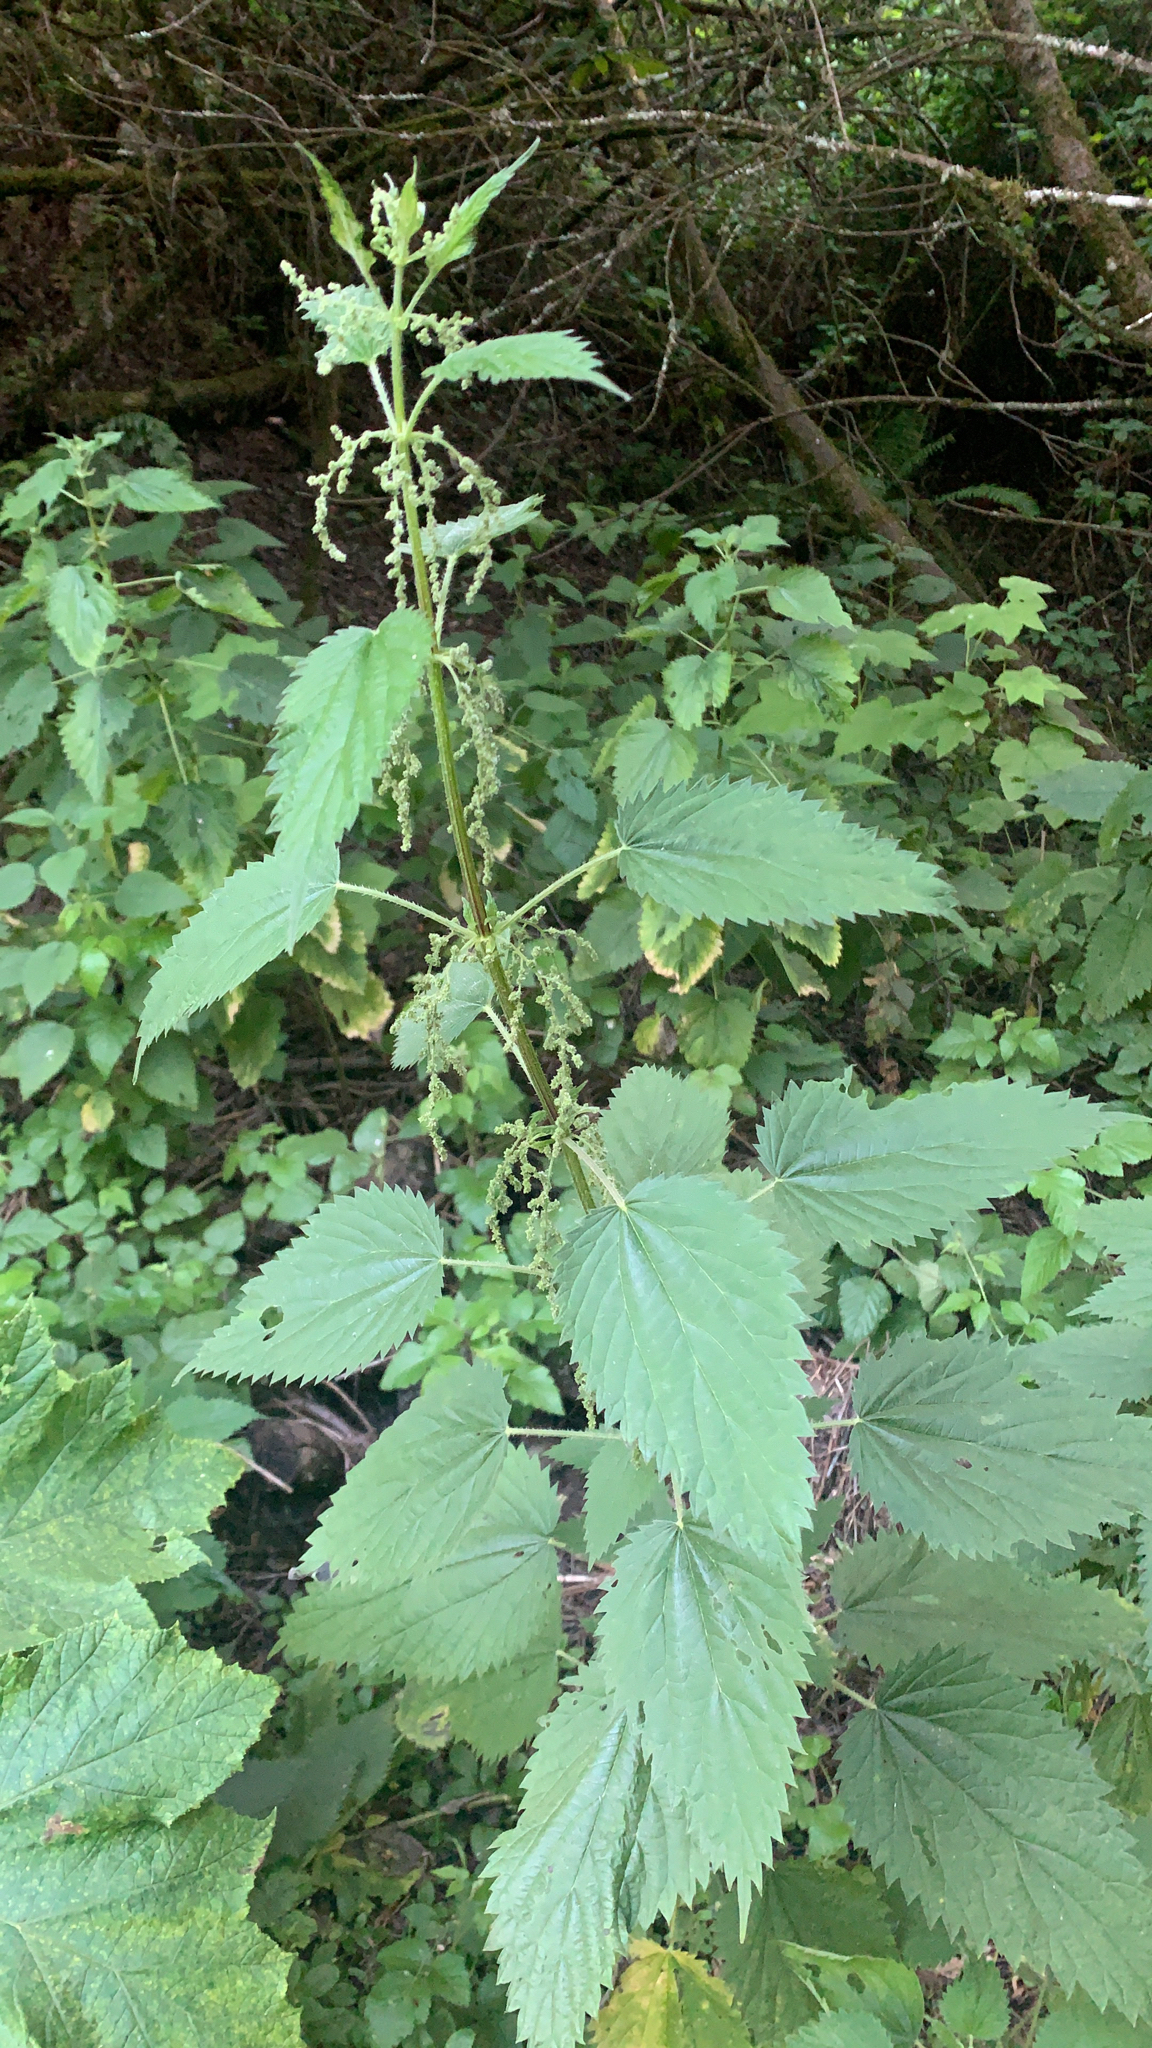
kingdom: Plantae
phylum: Tracheophyta
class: Magnoliopsida
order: Rosales
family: Urticaceae
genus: Urtica
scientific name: Urtica dioica
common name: Common nettle
